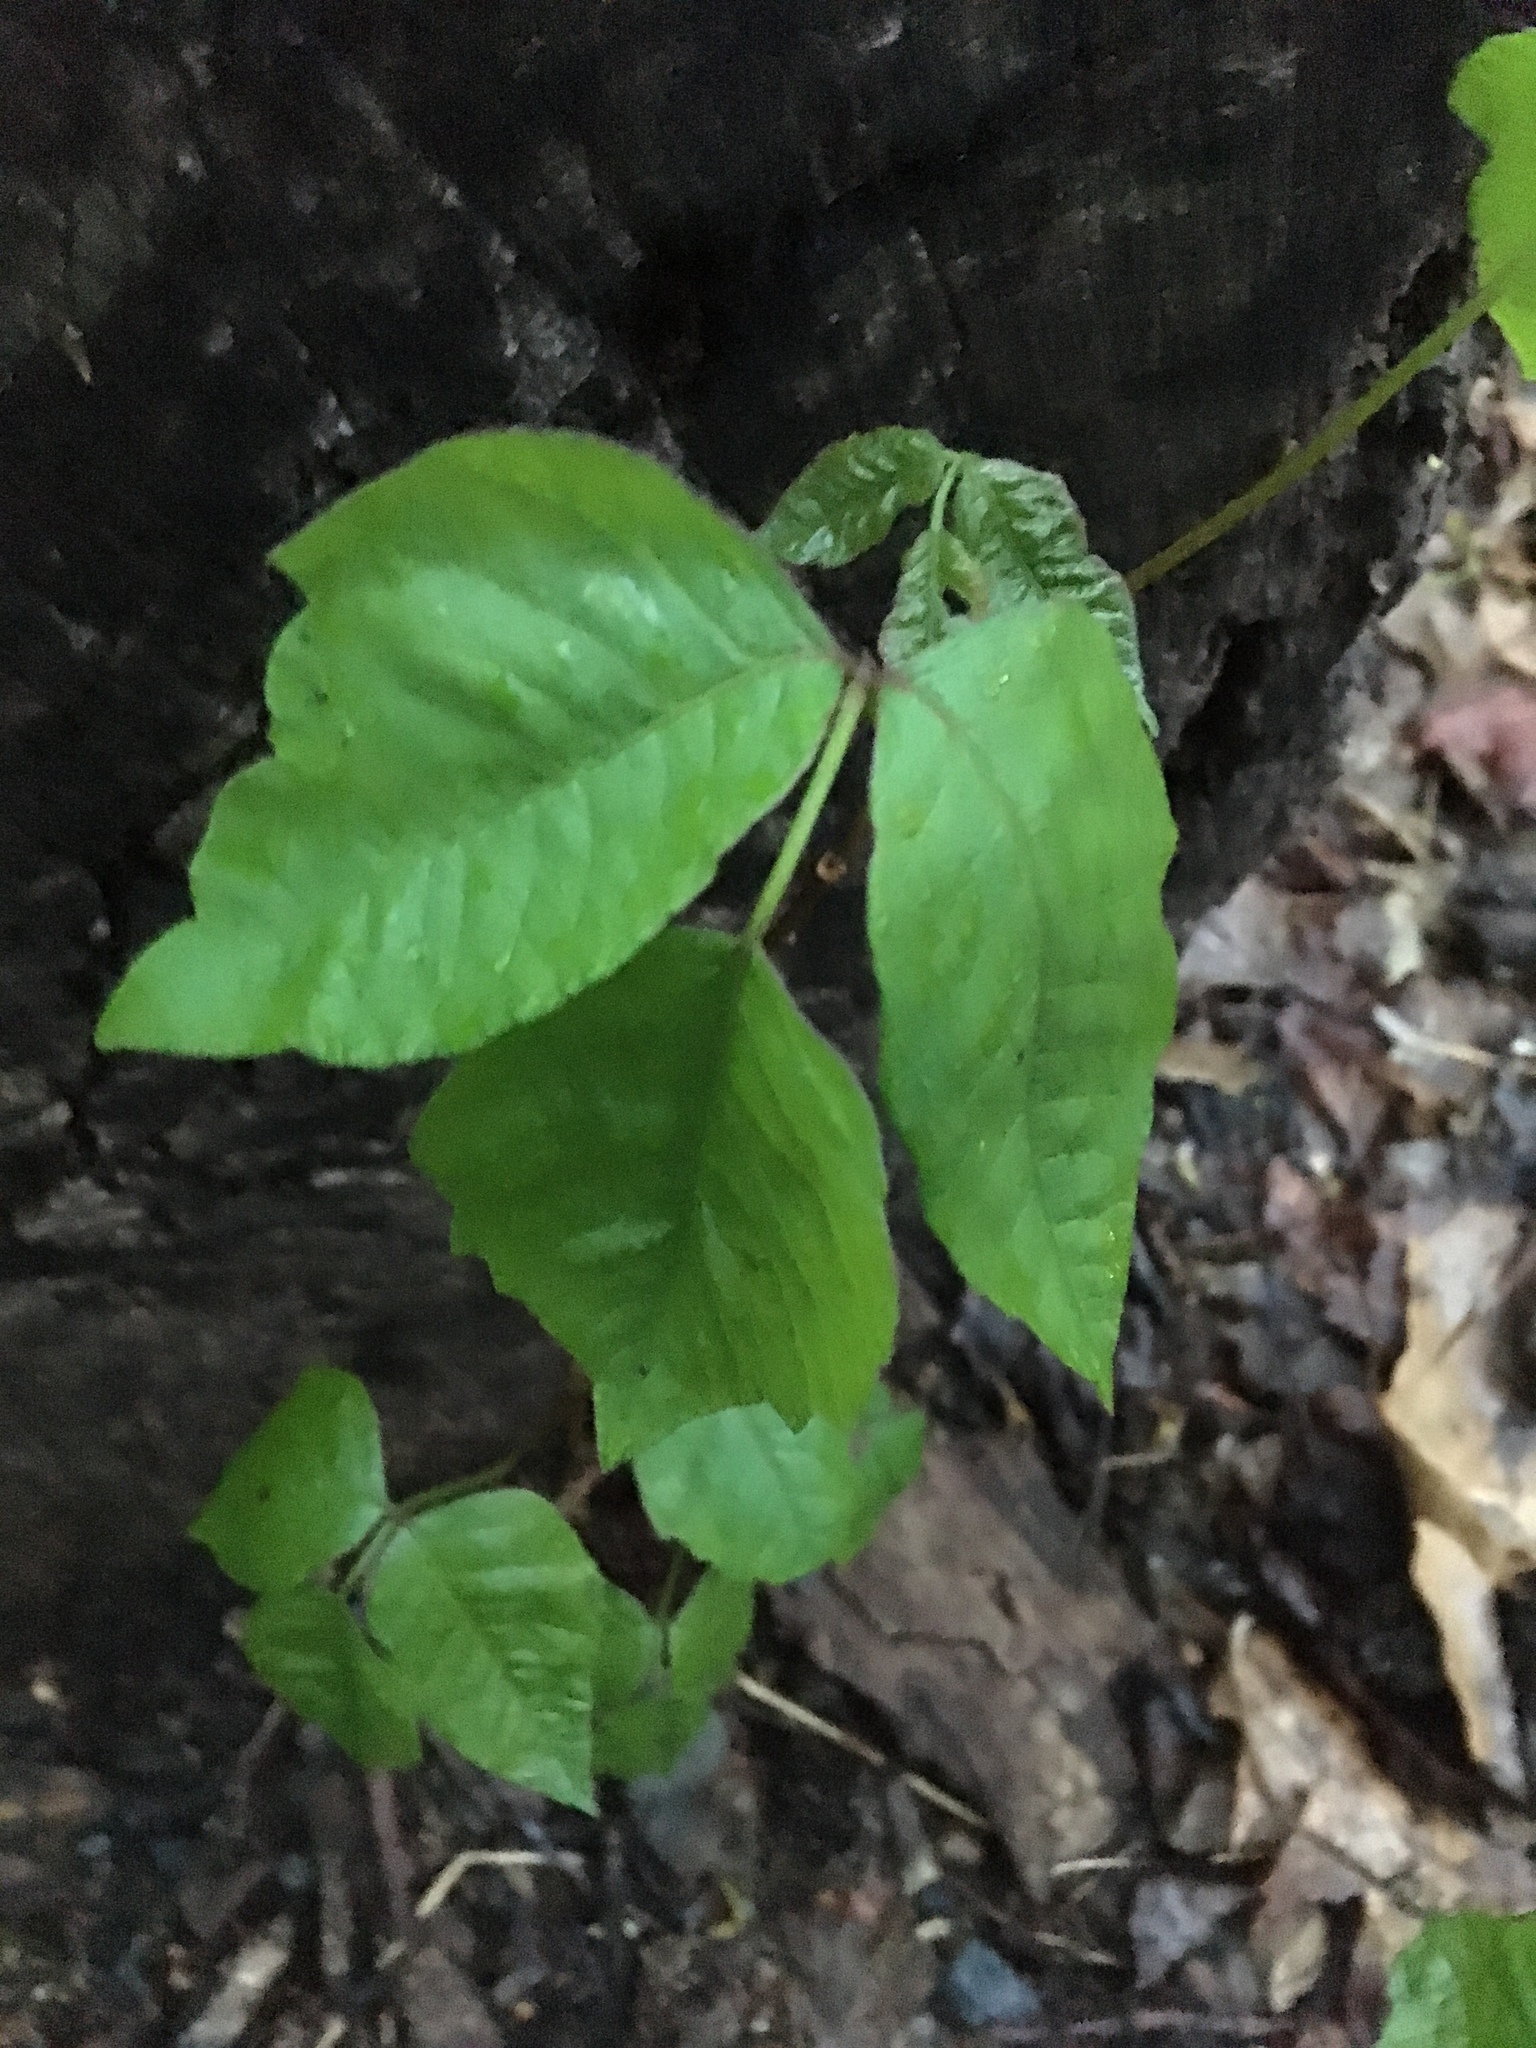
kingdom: Plantae
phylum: Tracheophyta
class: Magnoliopsida
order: Sapindales
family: Anacardiaceae
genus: Toxicodendron
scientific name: Toxicodendron radicans
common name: Poison ivy
